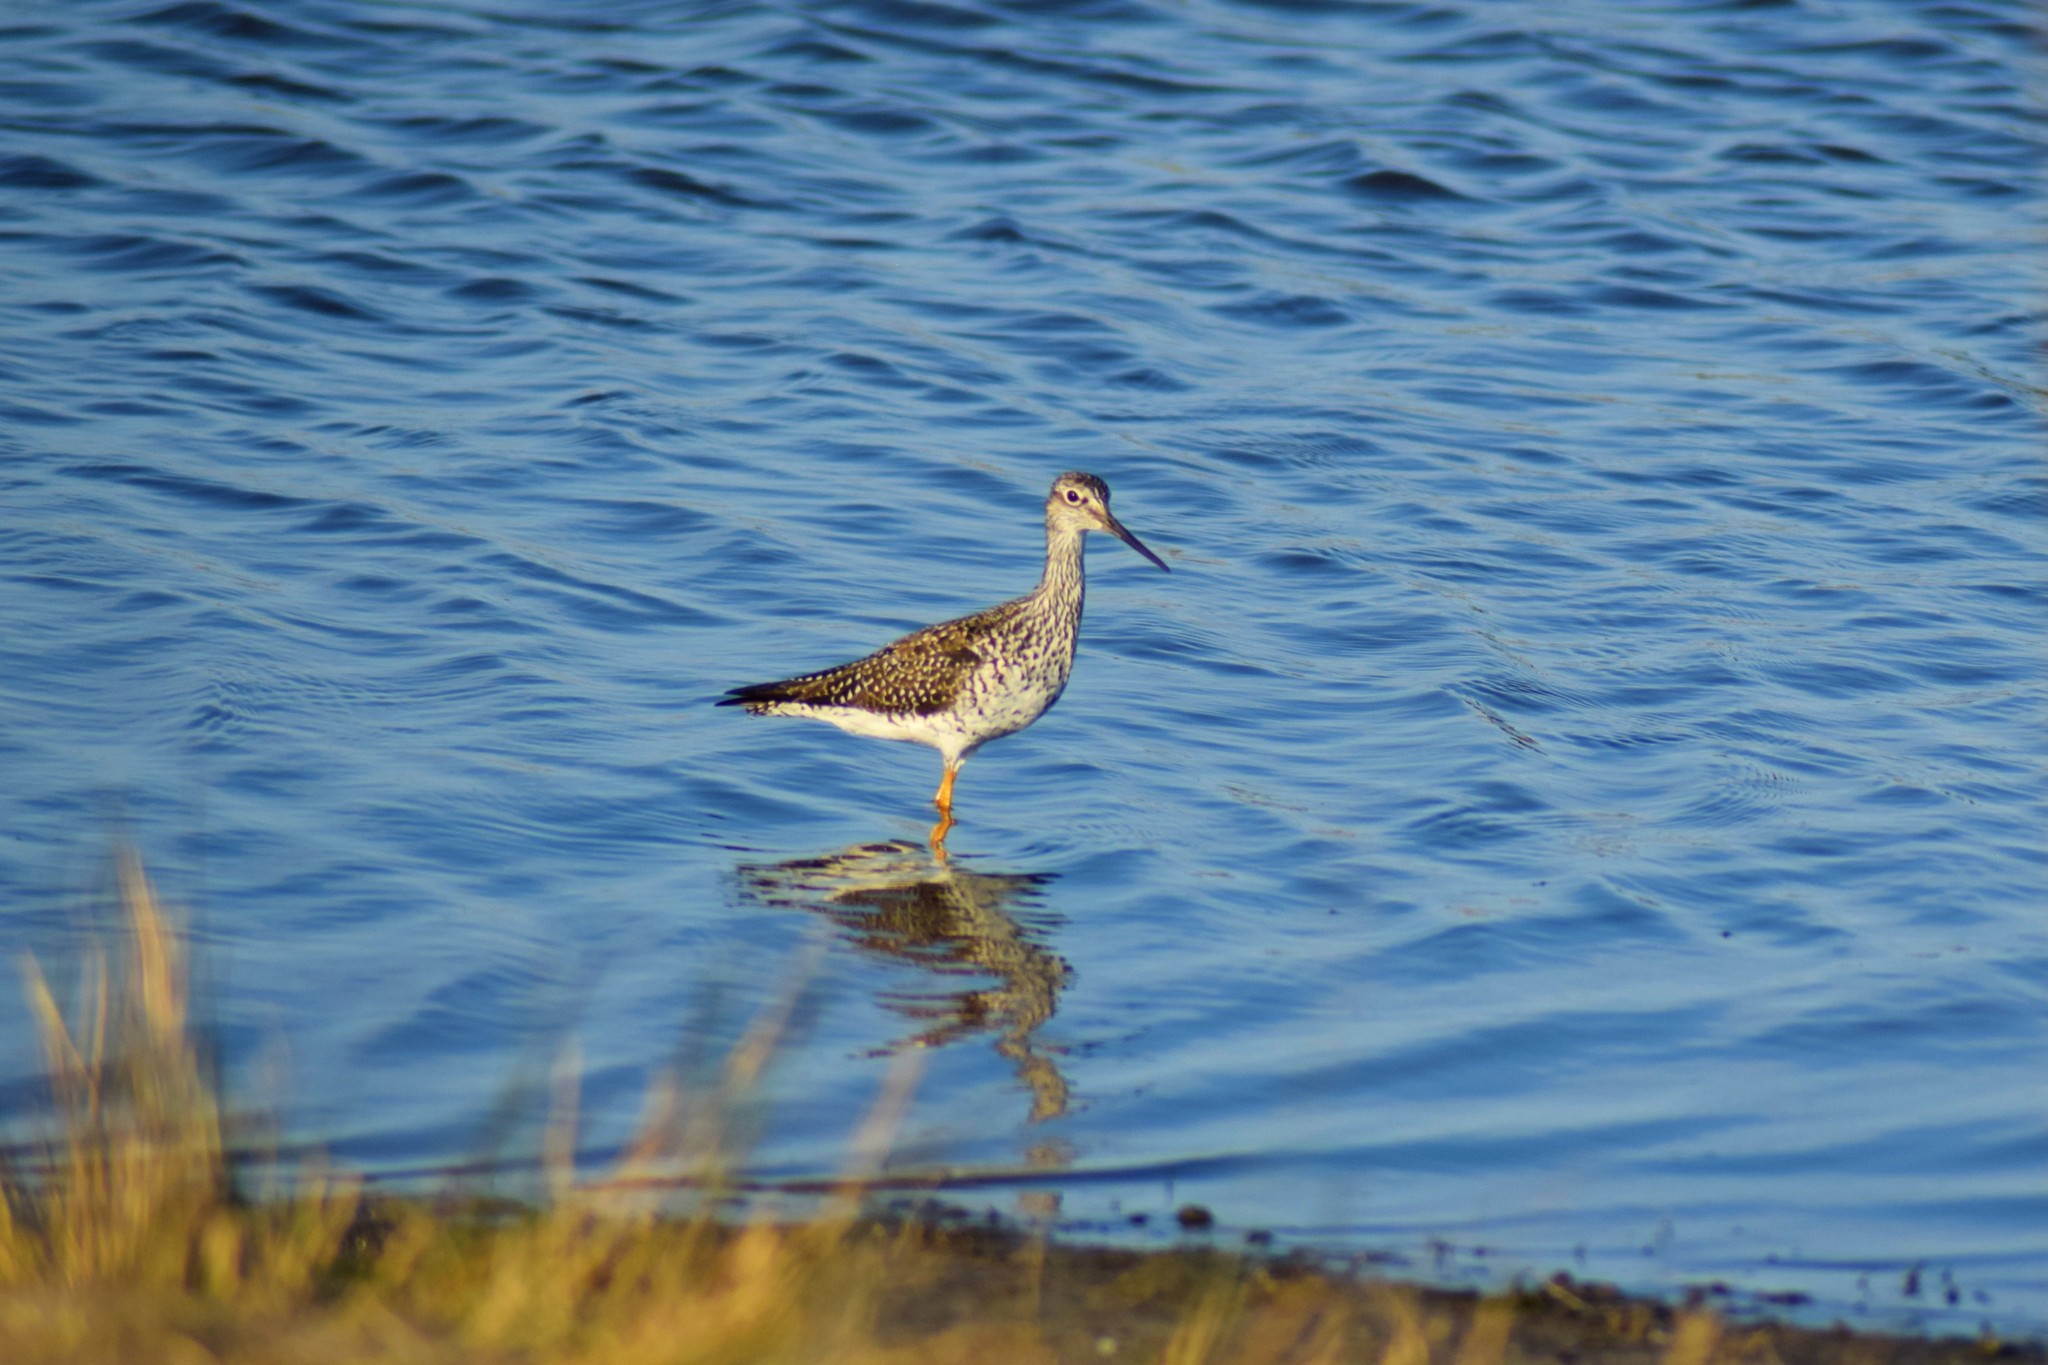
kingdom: Animalia
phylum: Chordata
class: Aves
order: Charadriiformes
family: Scolopacidae
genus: Tringa
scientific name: Tringa melanoleuca
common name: Greater yellowlegs
